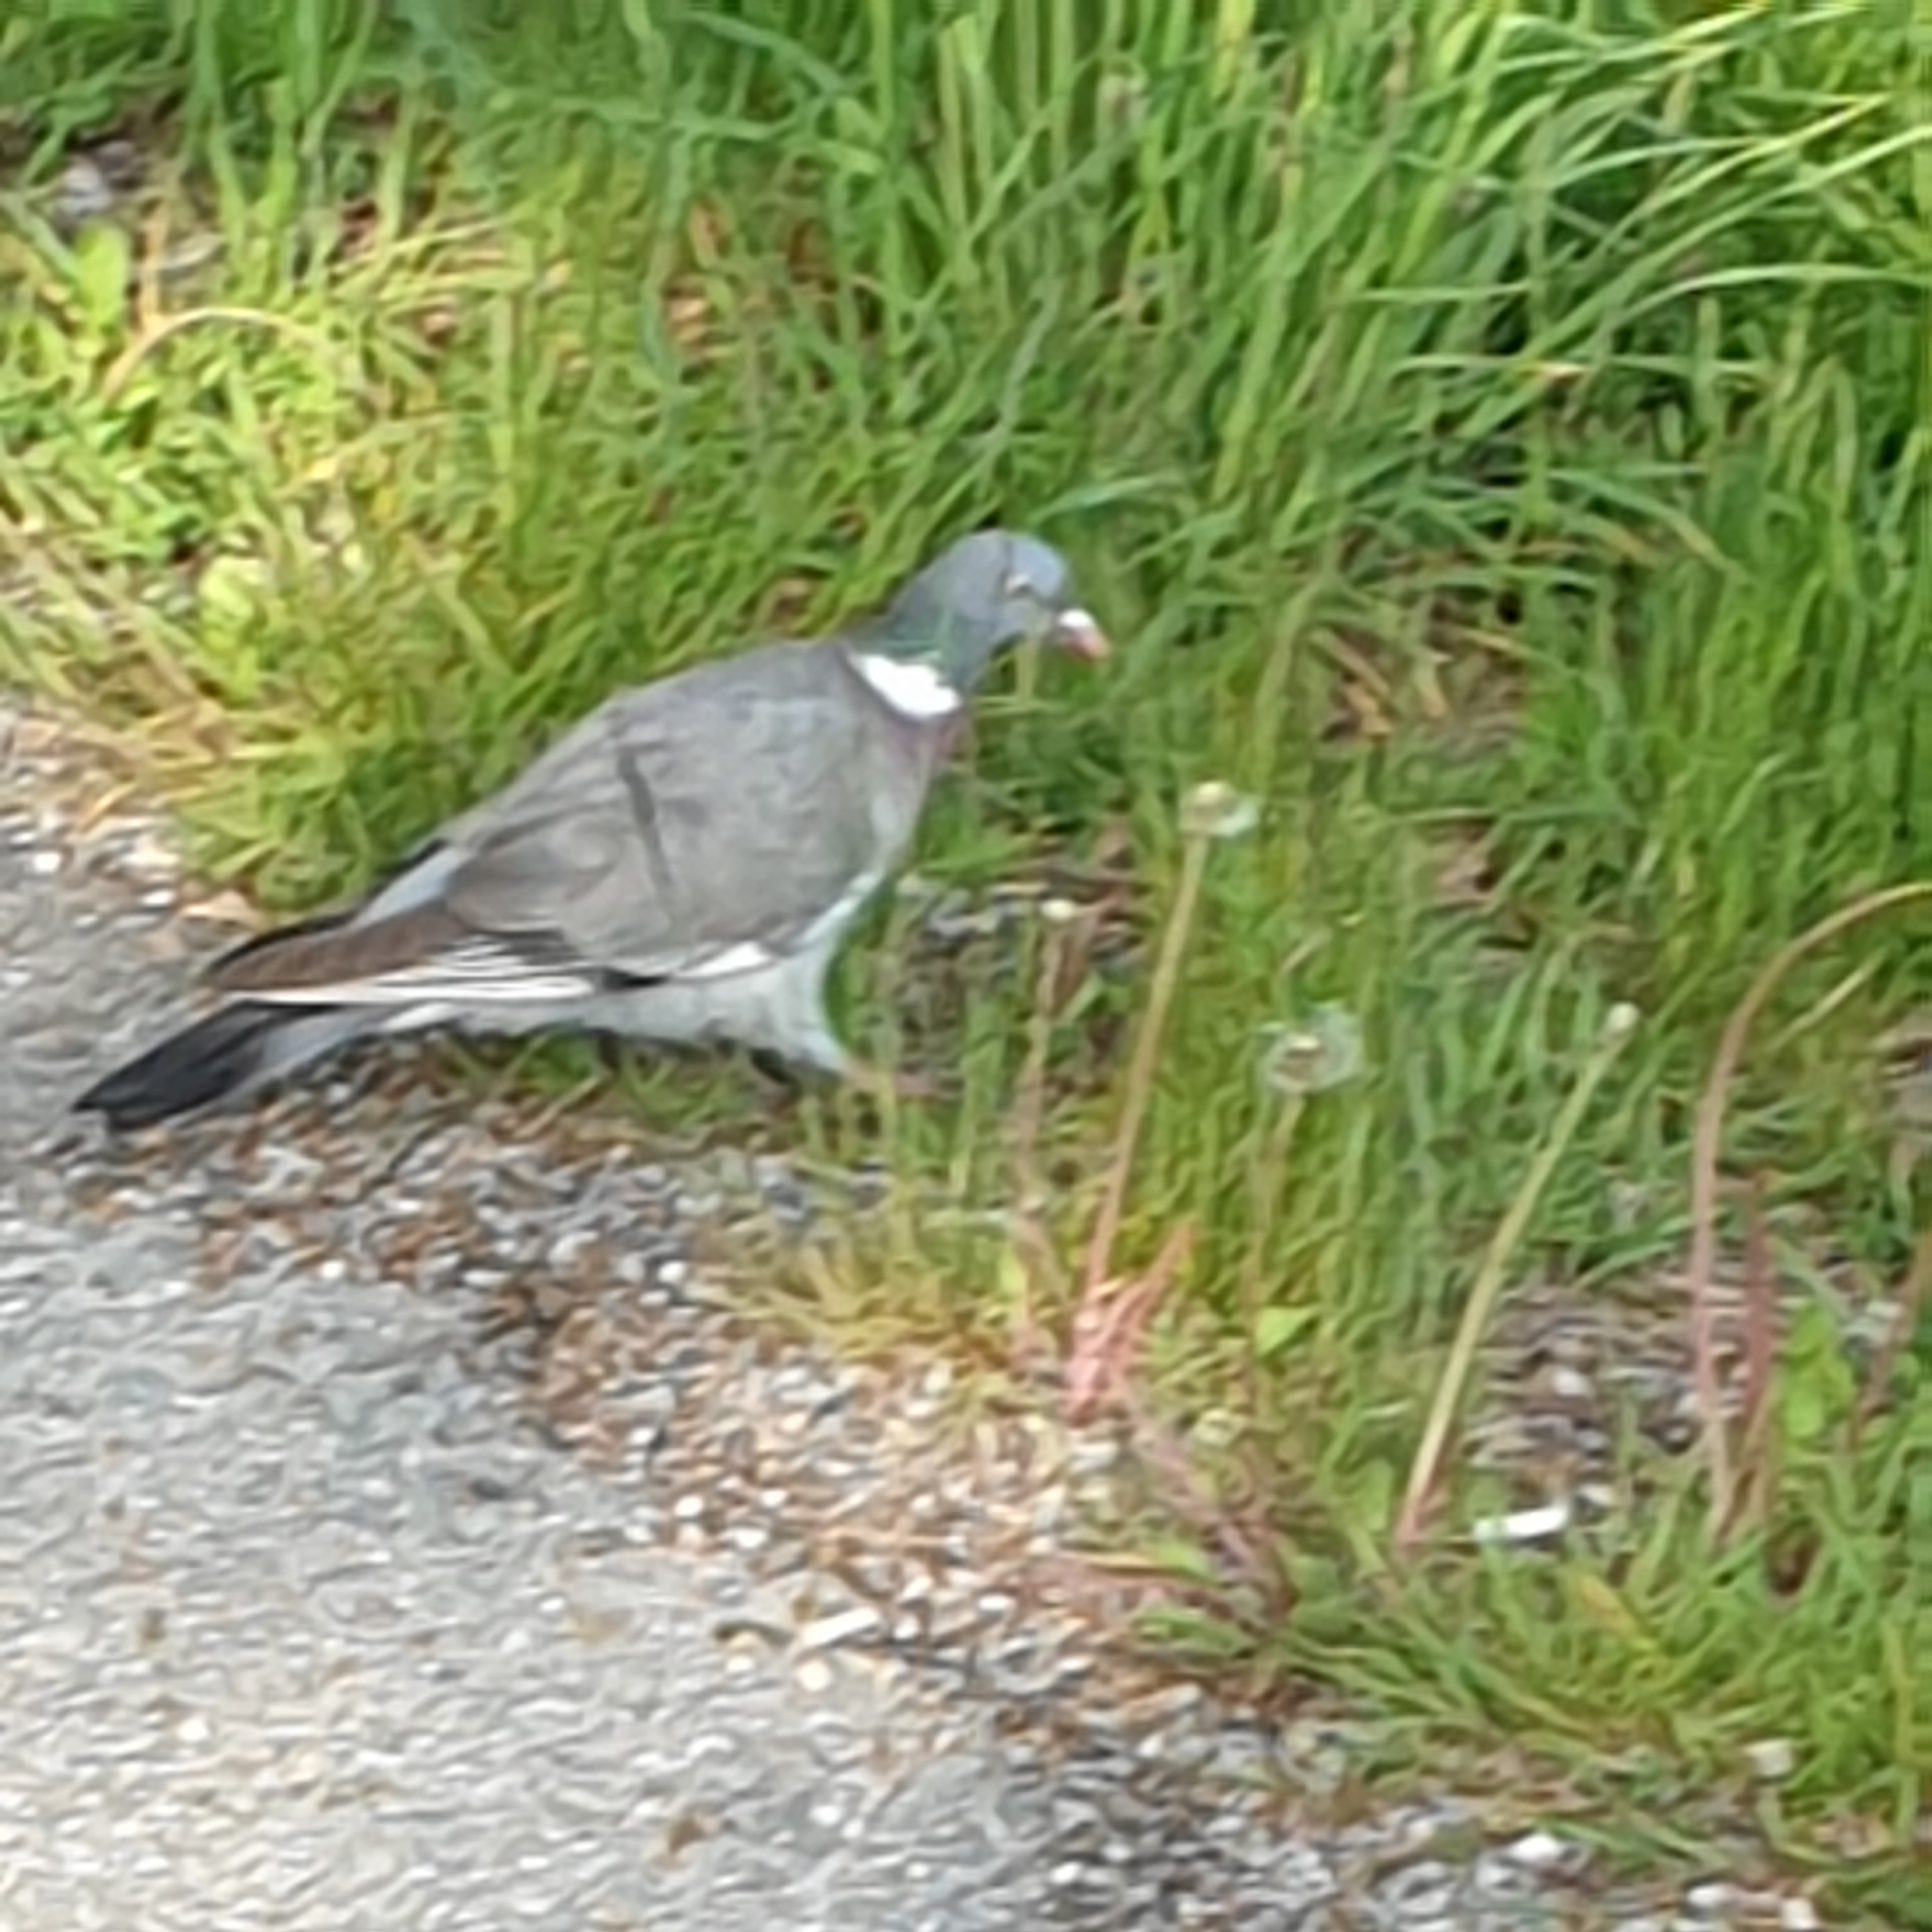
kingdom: Animalia
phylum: Chordata
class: Aves
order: Columbiformes
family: Columbidae
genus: Columba
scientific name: Columba palumbus
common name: Common wood pigeon
